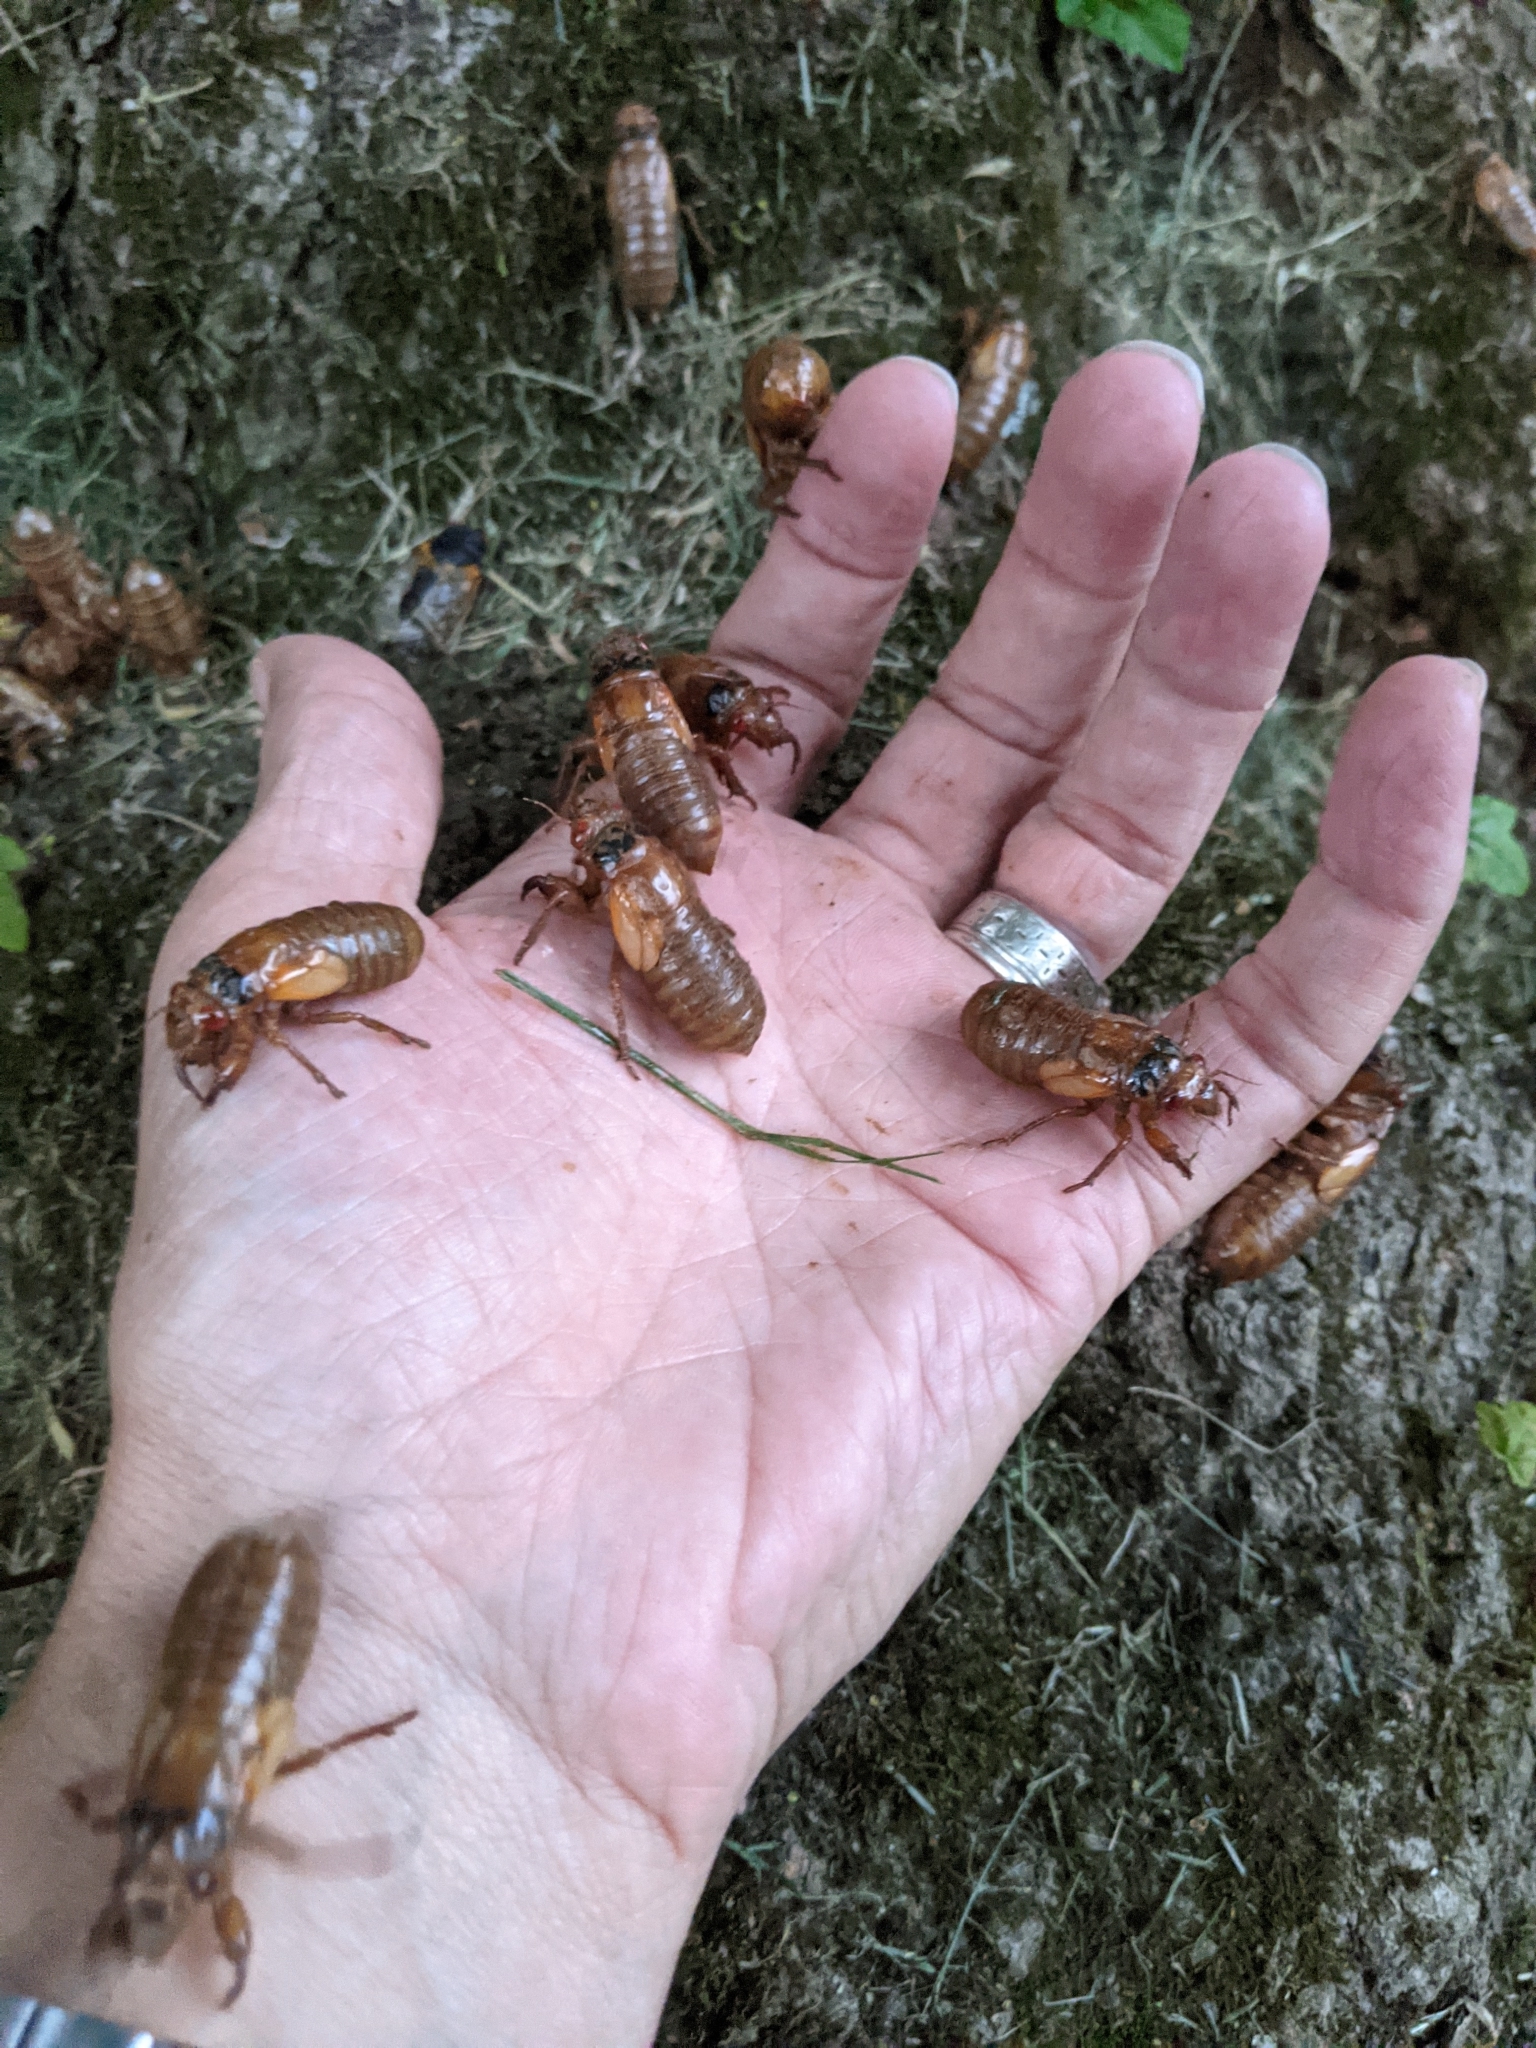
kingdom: Animalia
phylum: Arthropoda
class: Insecta
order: Hemiptera
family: Cicadidae
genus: Magicicada
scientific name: Magicicada
